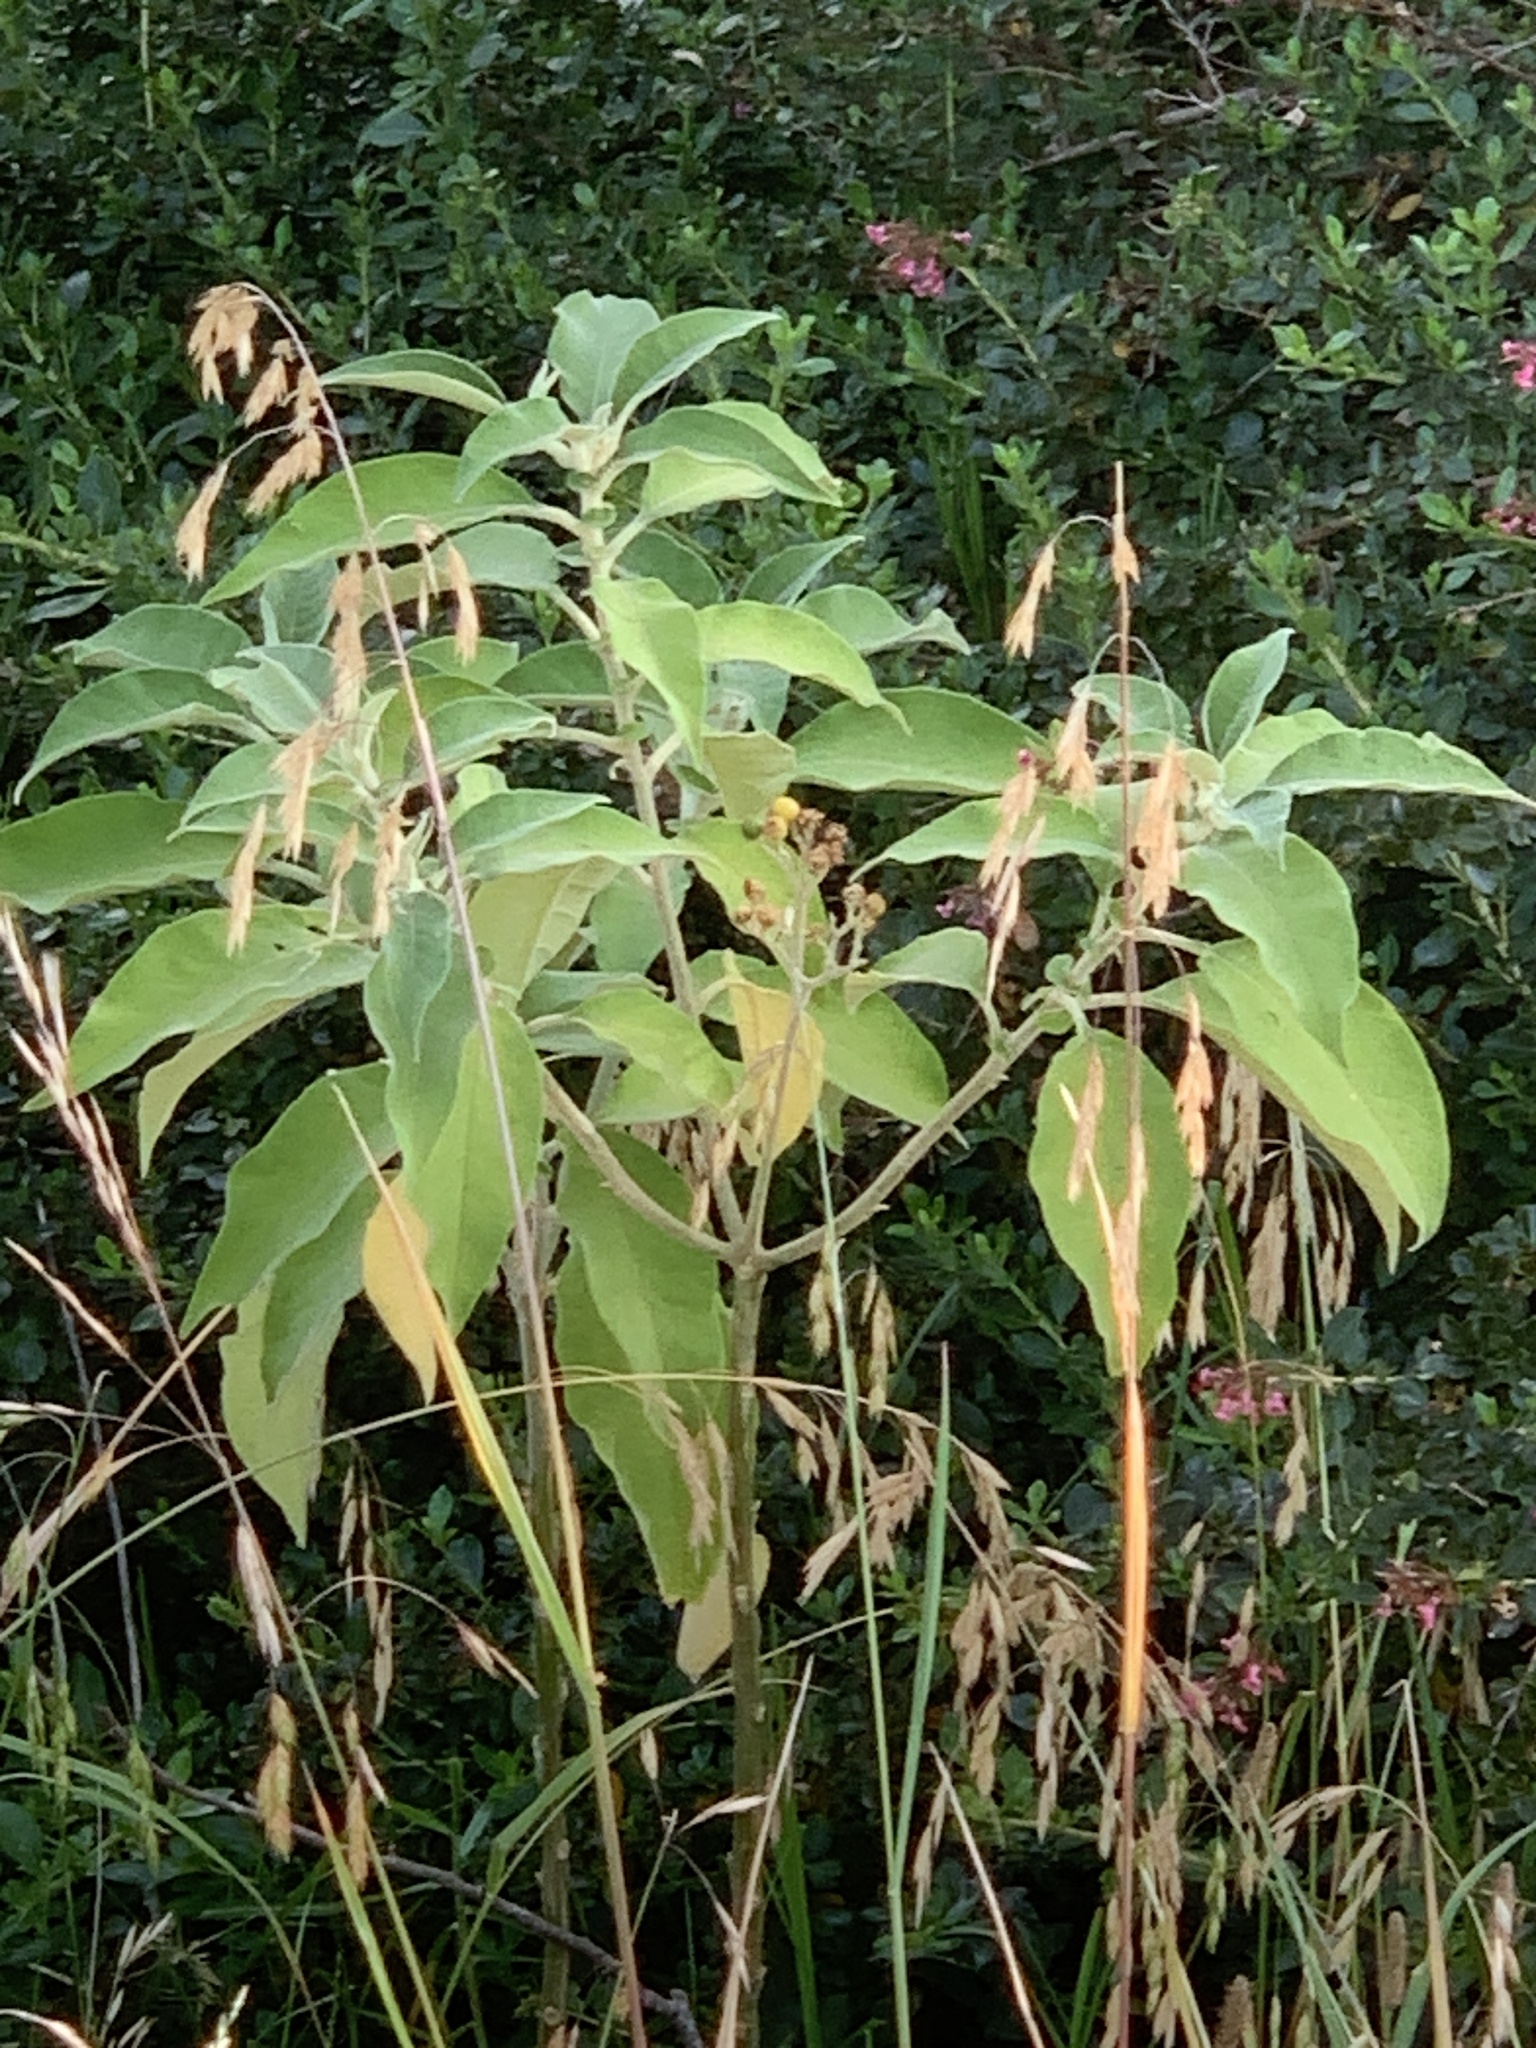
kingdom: Plantae
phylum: Tracheophyta
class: Magnoliopsida
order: Solanales
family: Solanaceae
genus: Solanum
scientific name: Solanum mauritianum
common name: Earleaf nightshade
